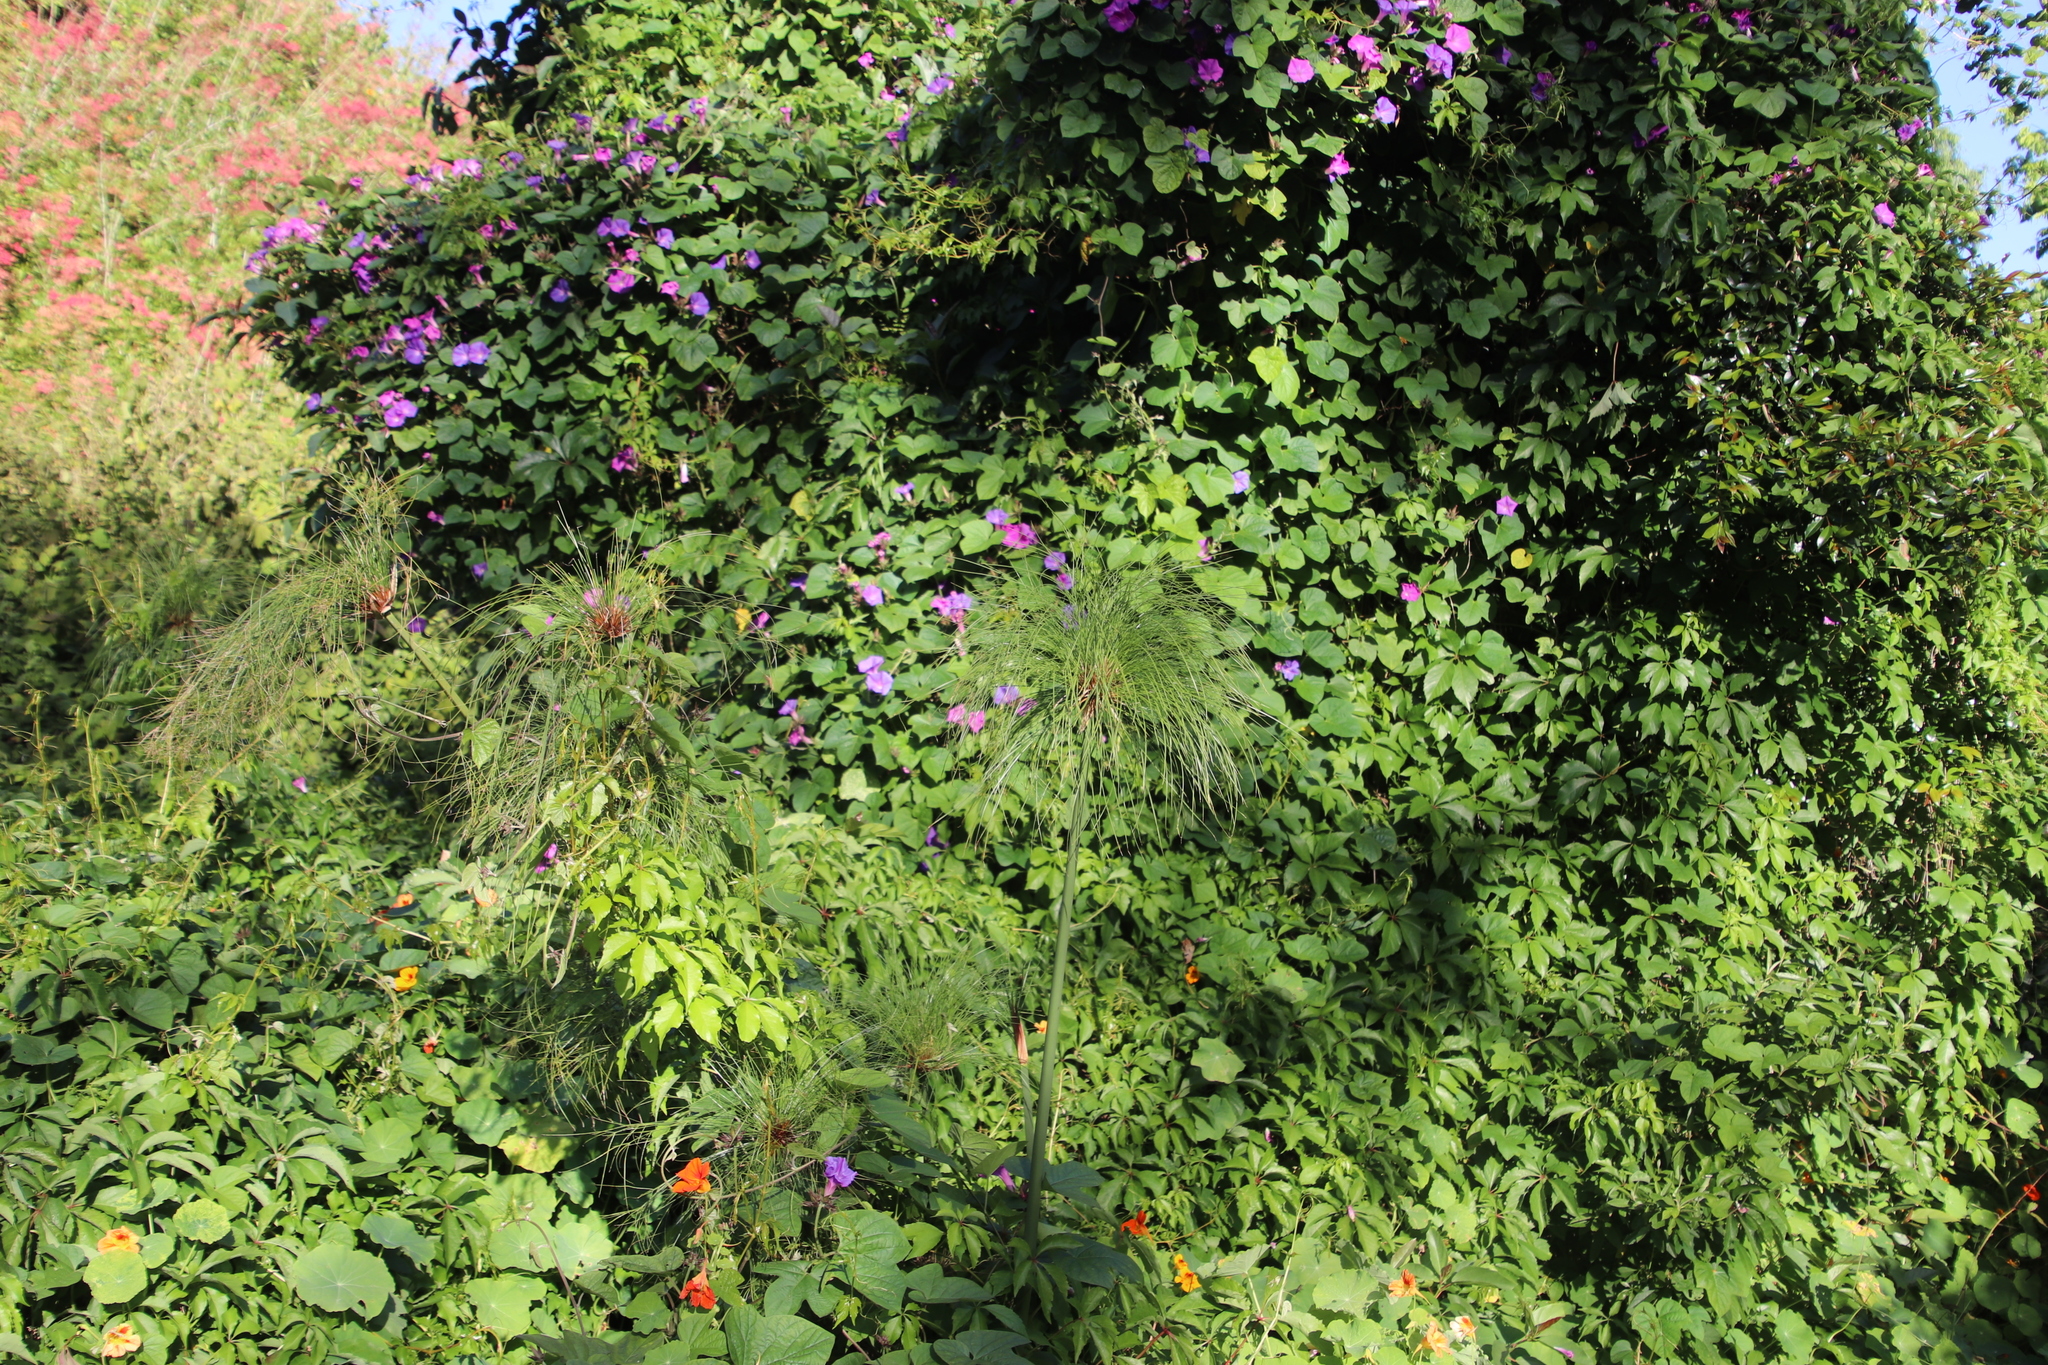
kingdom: Plantae
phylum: Tracheophyta
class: Liliopsida
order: Poales
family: Cyperaceae
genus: Cyperus
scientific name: Cyperus papyrus
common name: Papyrus
